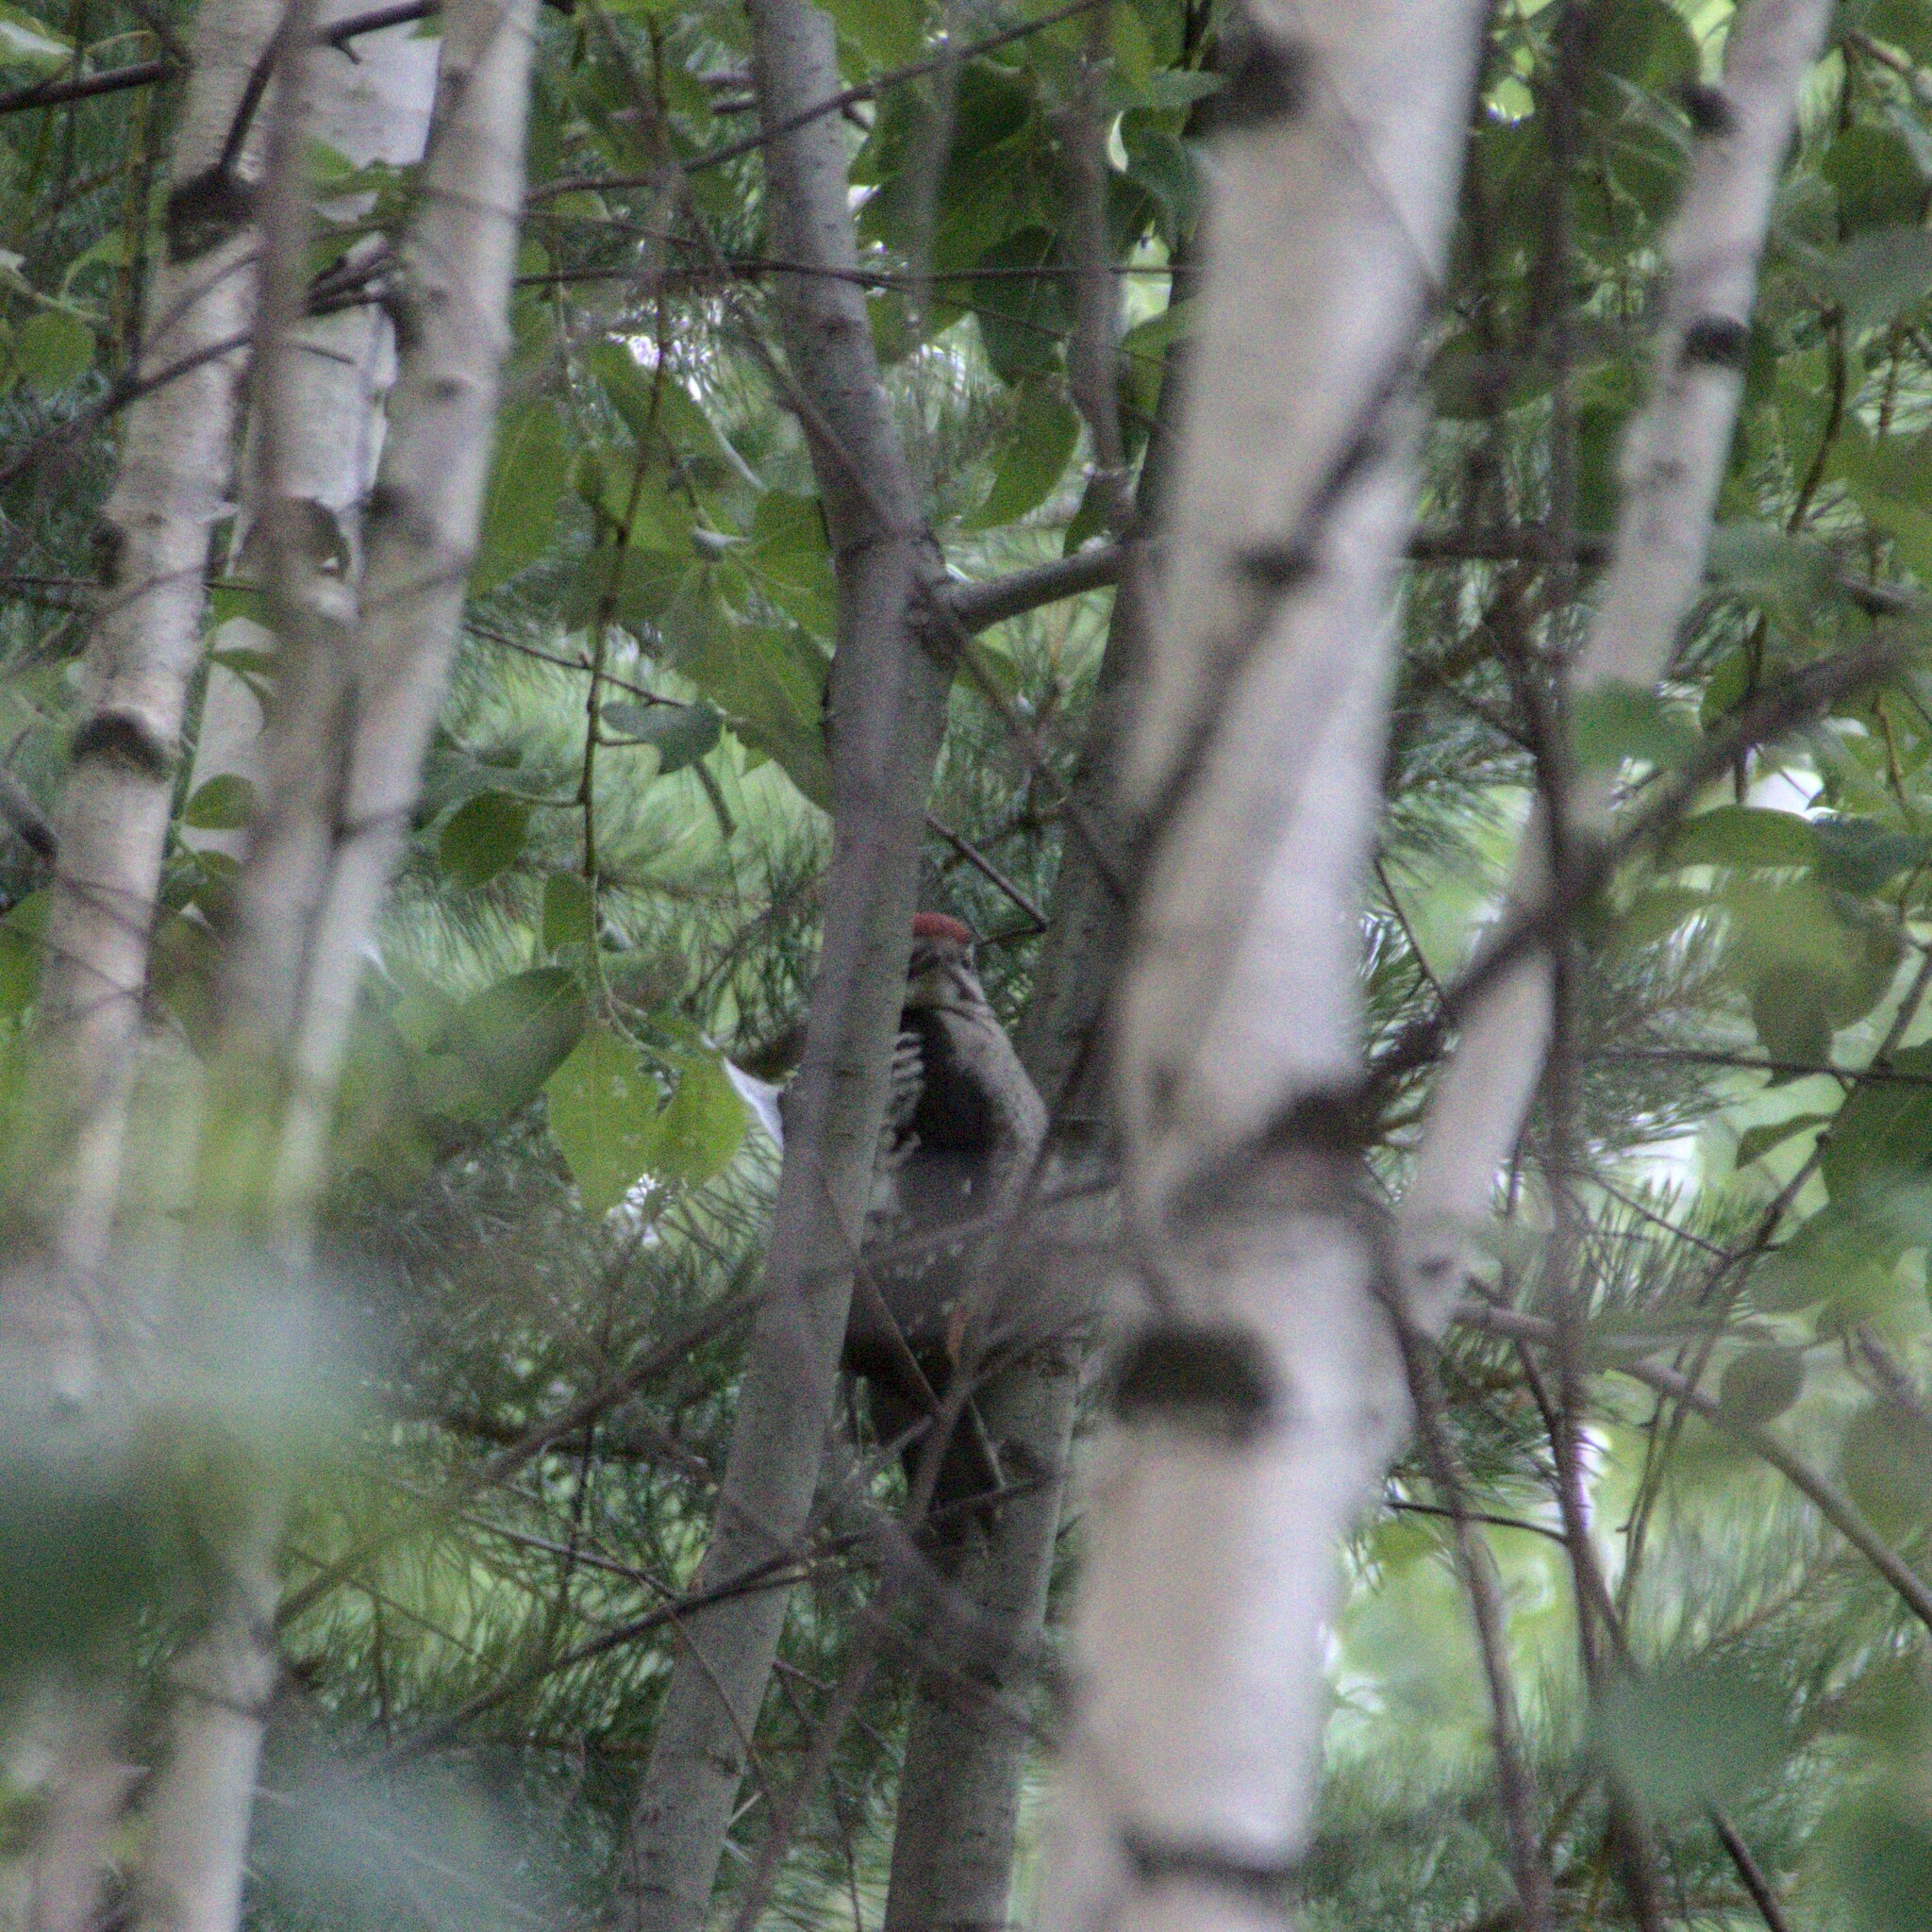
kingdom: Animalia
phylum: Chordata
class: Aves
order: Piciformes
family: Picidae
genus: Dendrocopos
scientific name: Dendrocopos major
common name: Great spotted woodpecker
